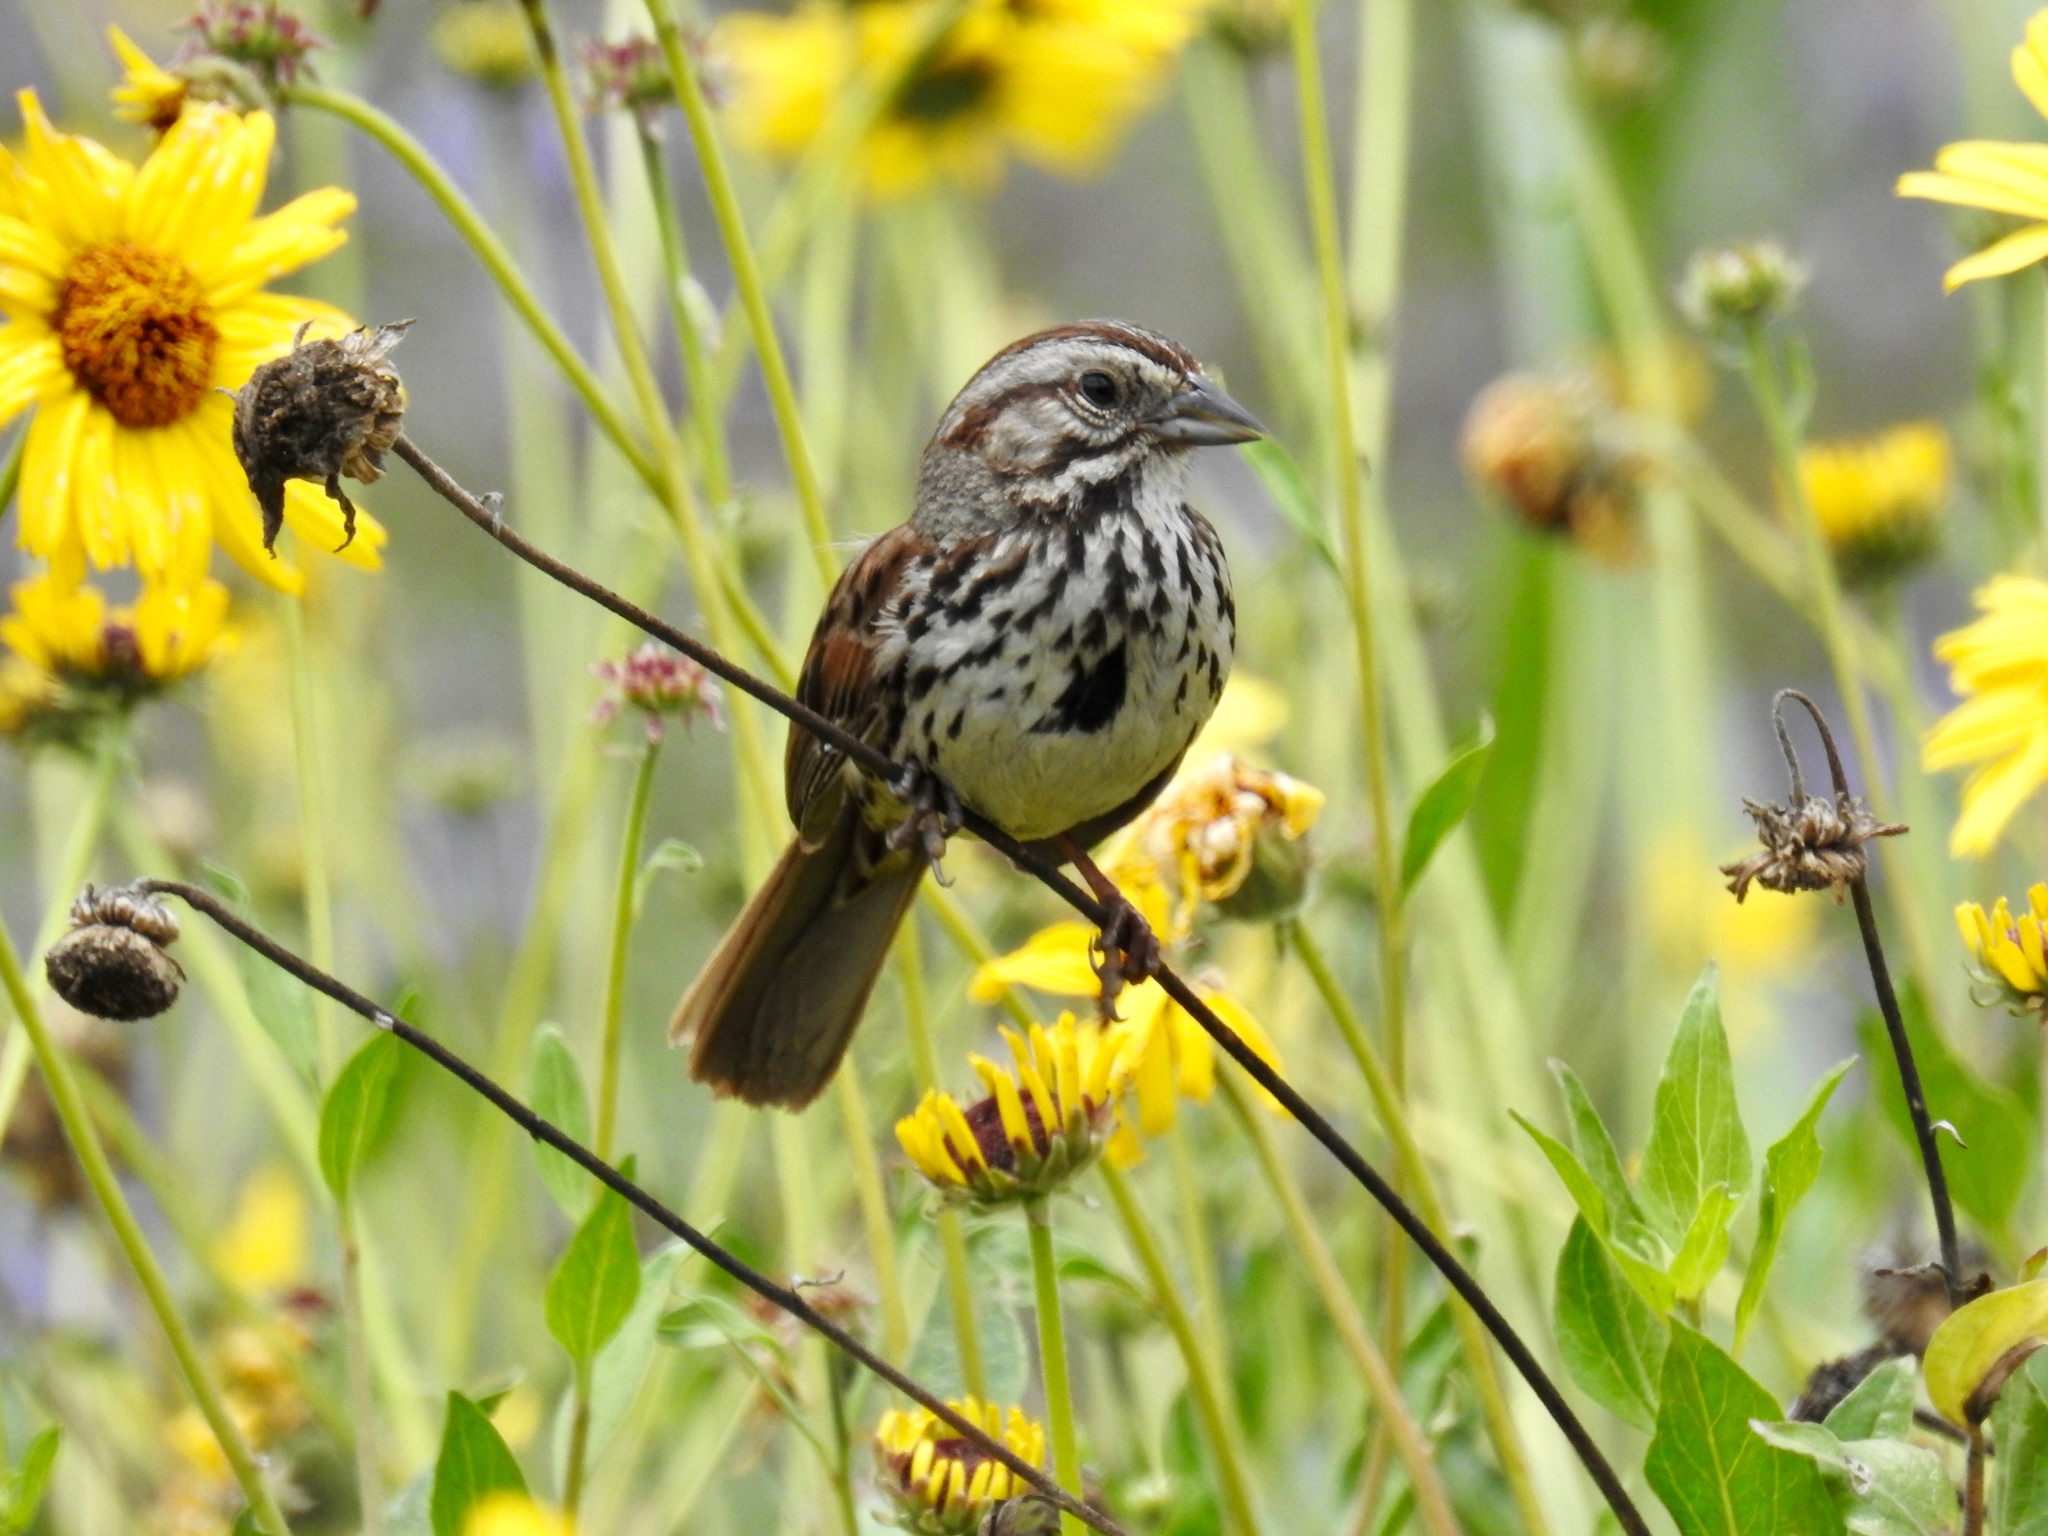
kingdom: Animalia
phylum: Chordata
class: Aves
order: Passeriformes
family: Passerellidae
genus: Melospiza
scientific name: Melospiza melodia
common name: Song sparrow
